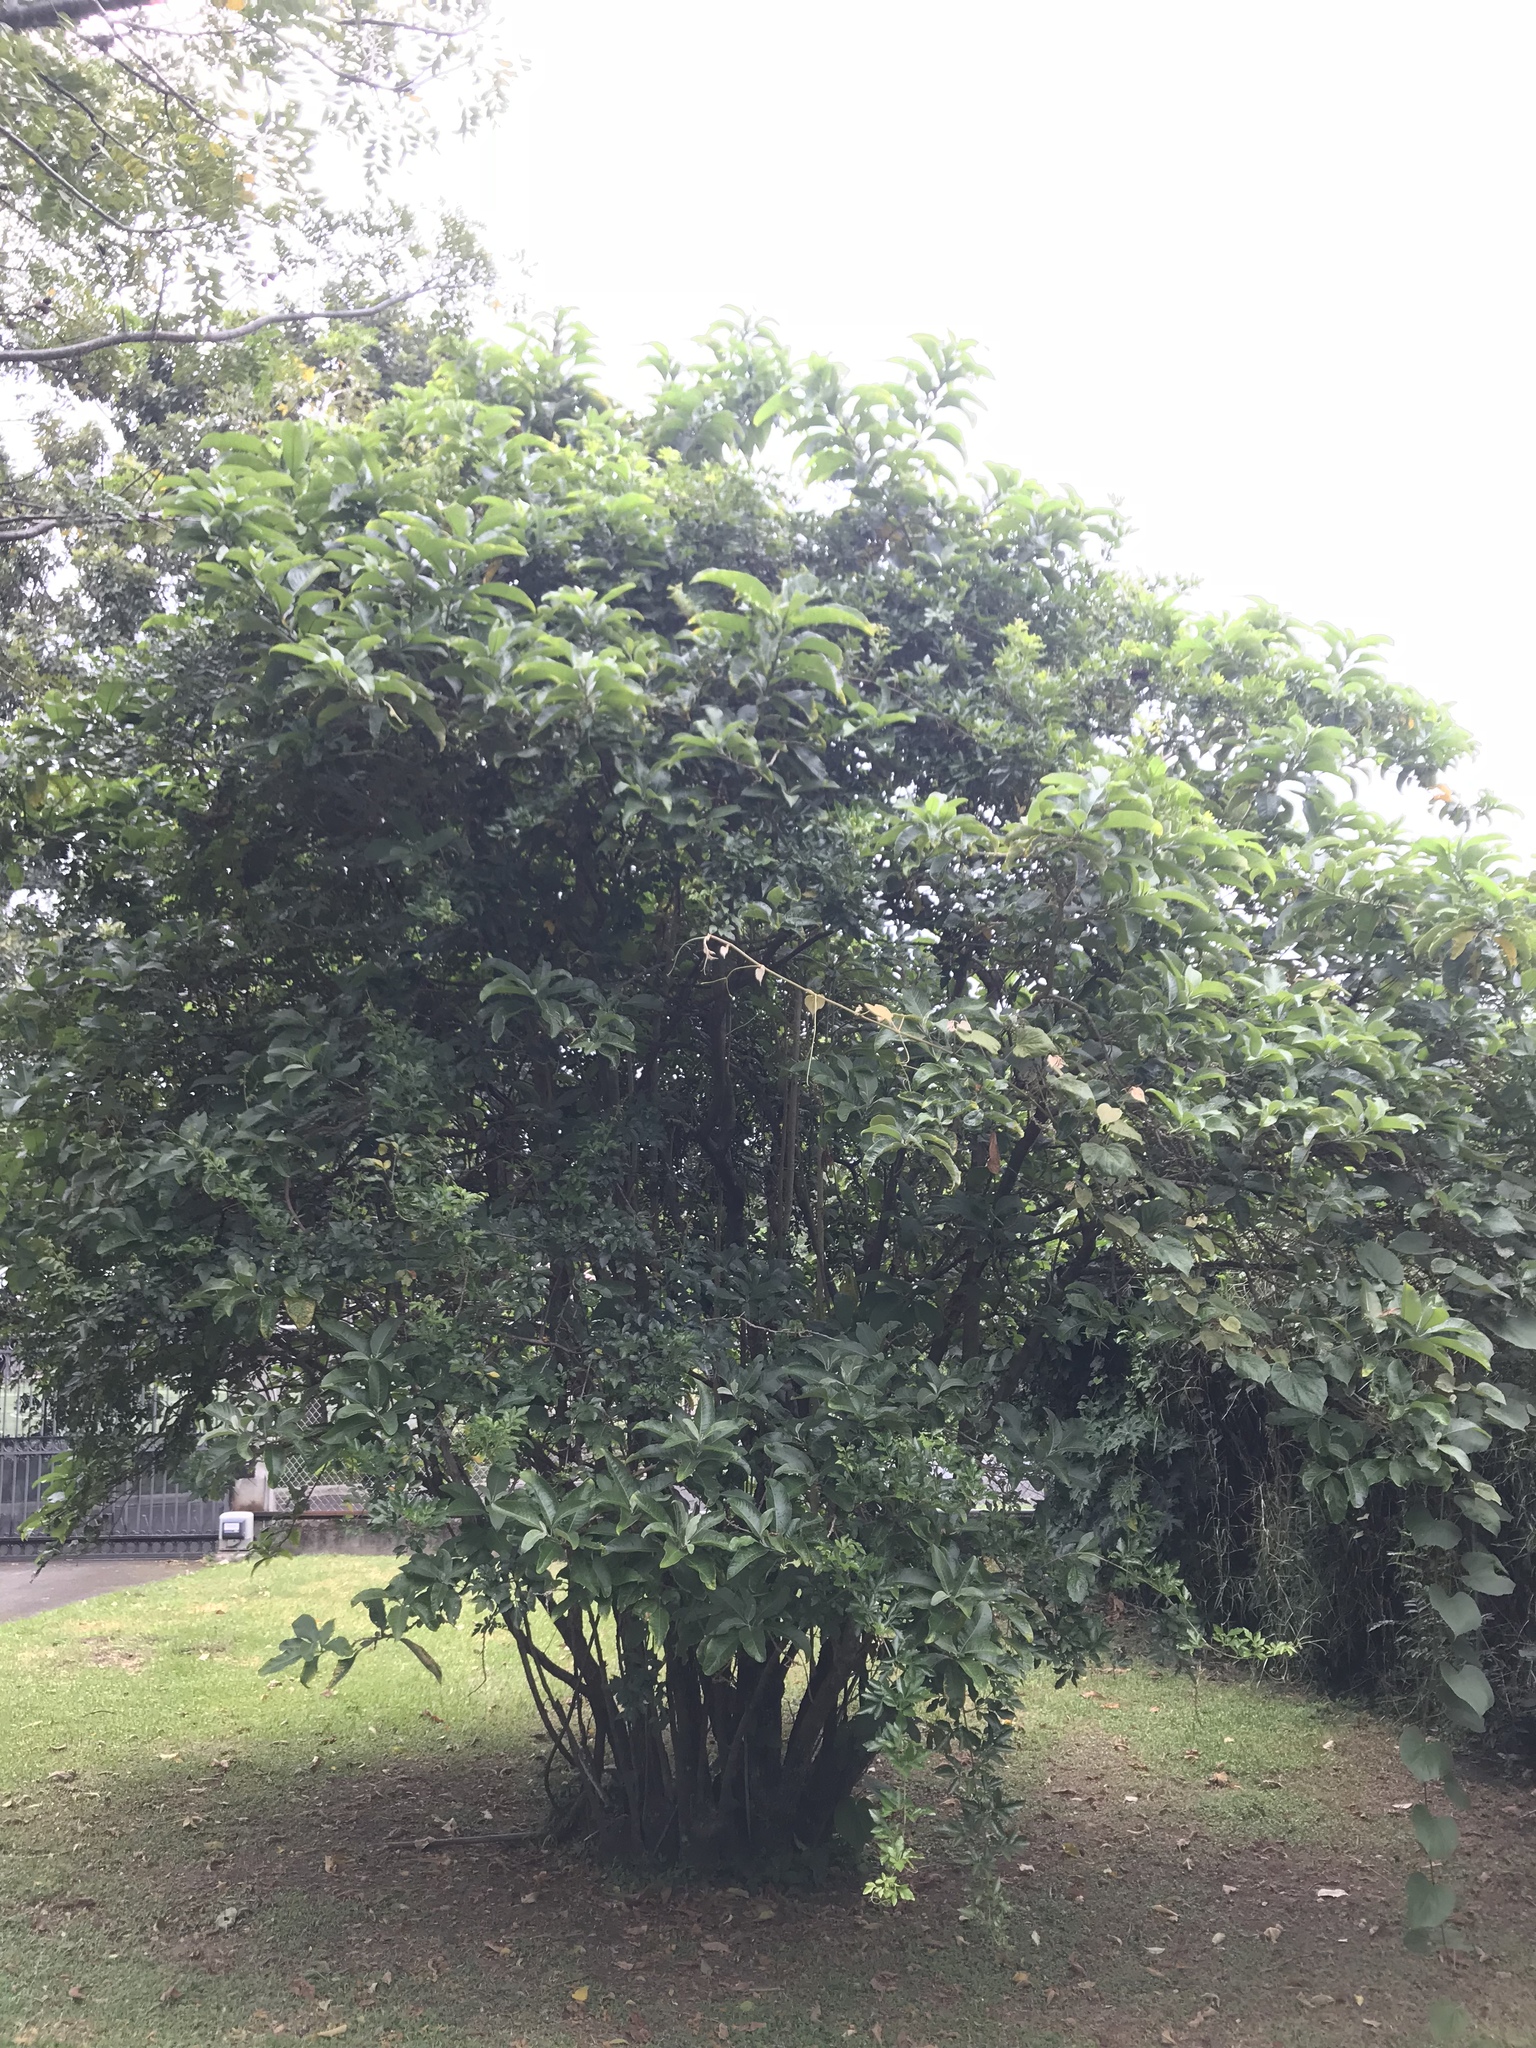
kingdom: Plantae
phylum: Tracheophyta
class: Magnoliopsida
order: Solanales
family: Solanaceae
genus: Iochroma
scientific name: Iochroma arborescens
